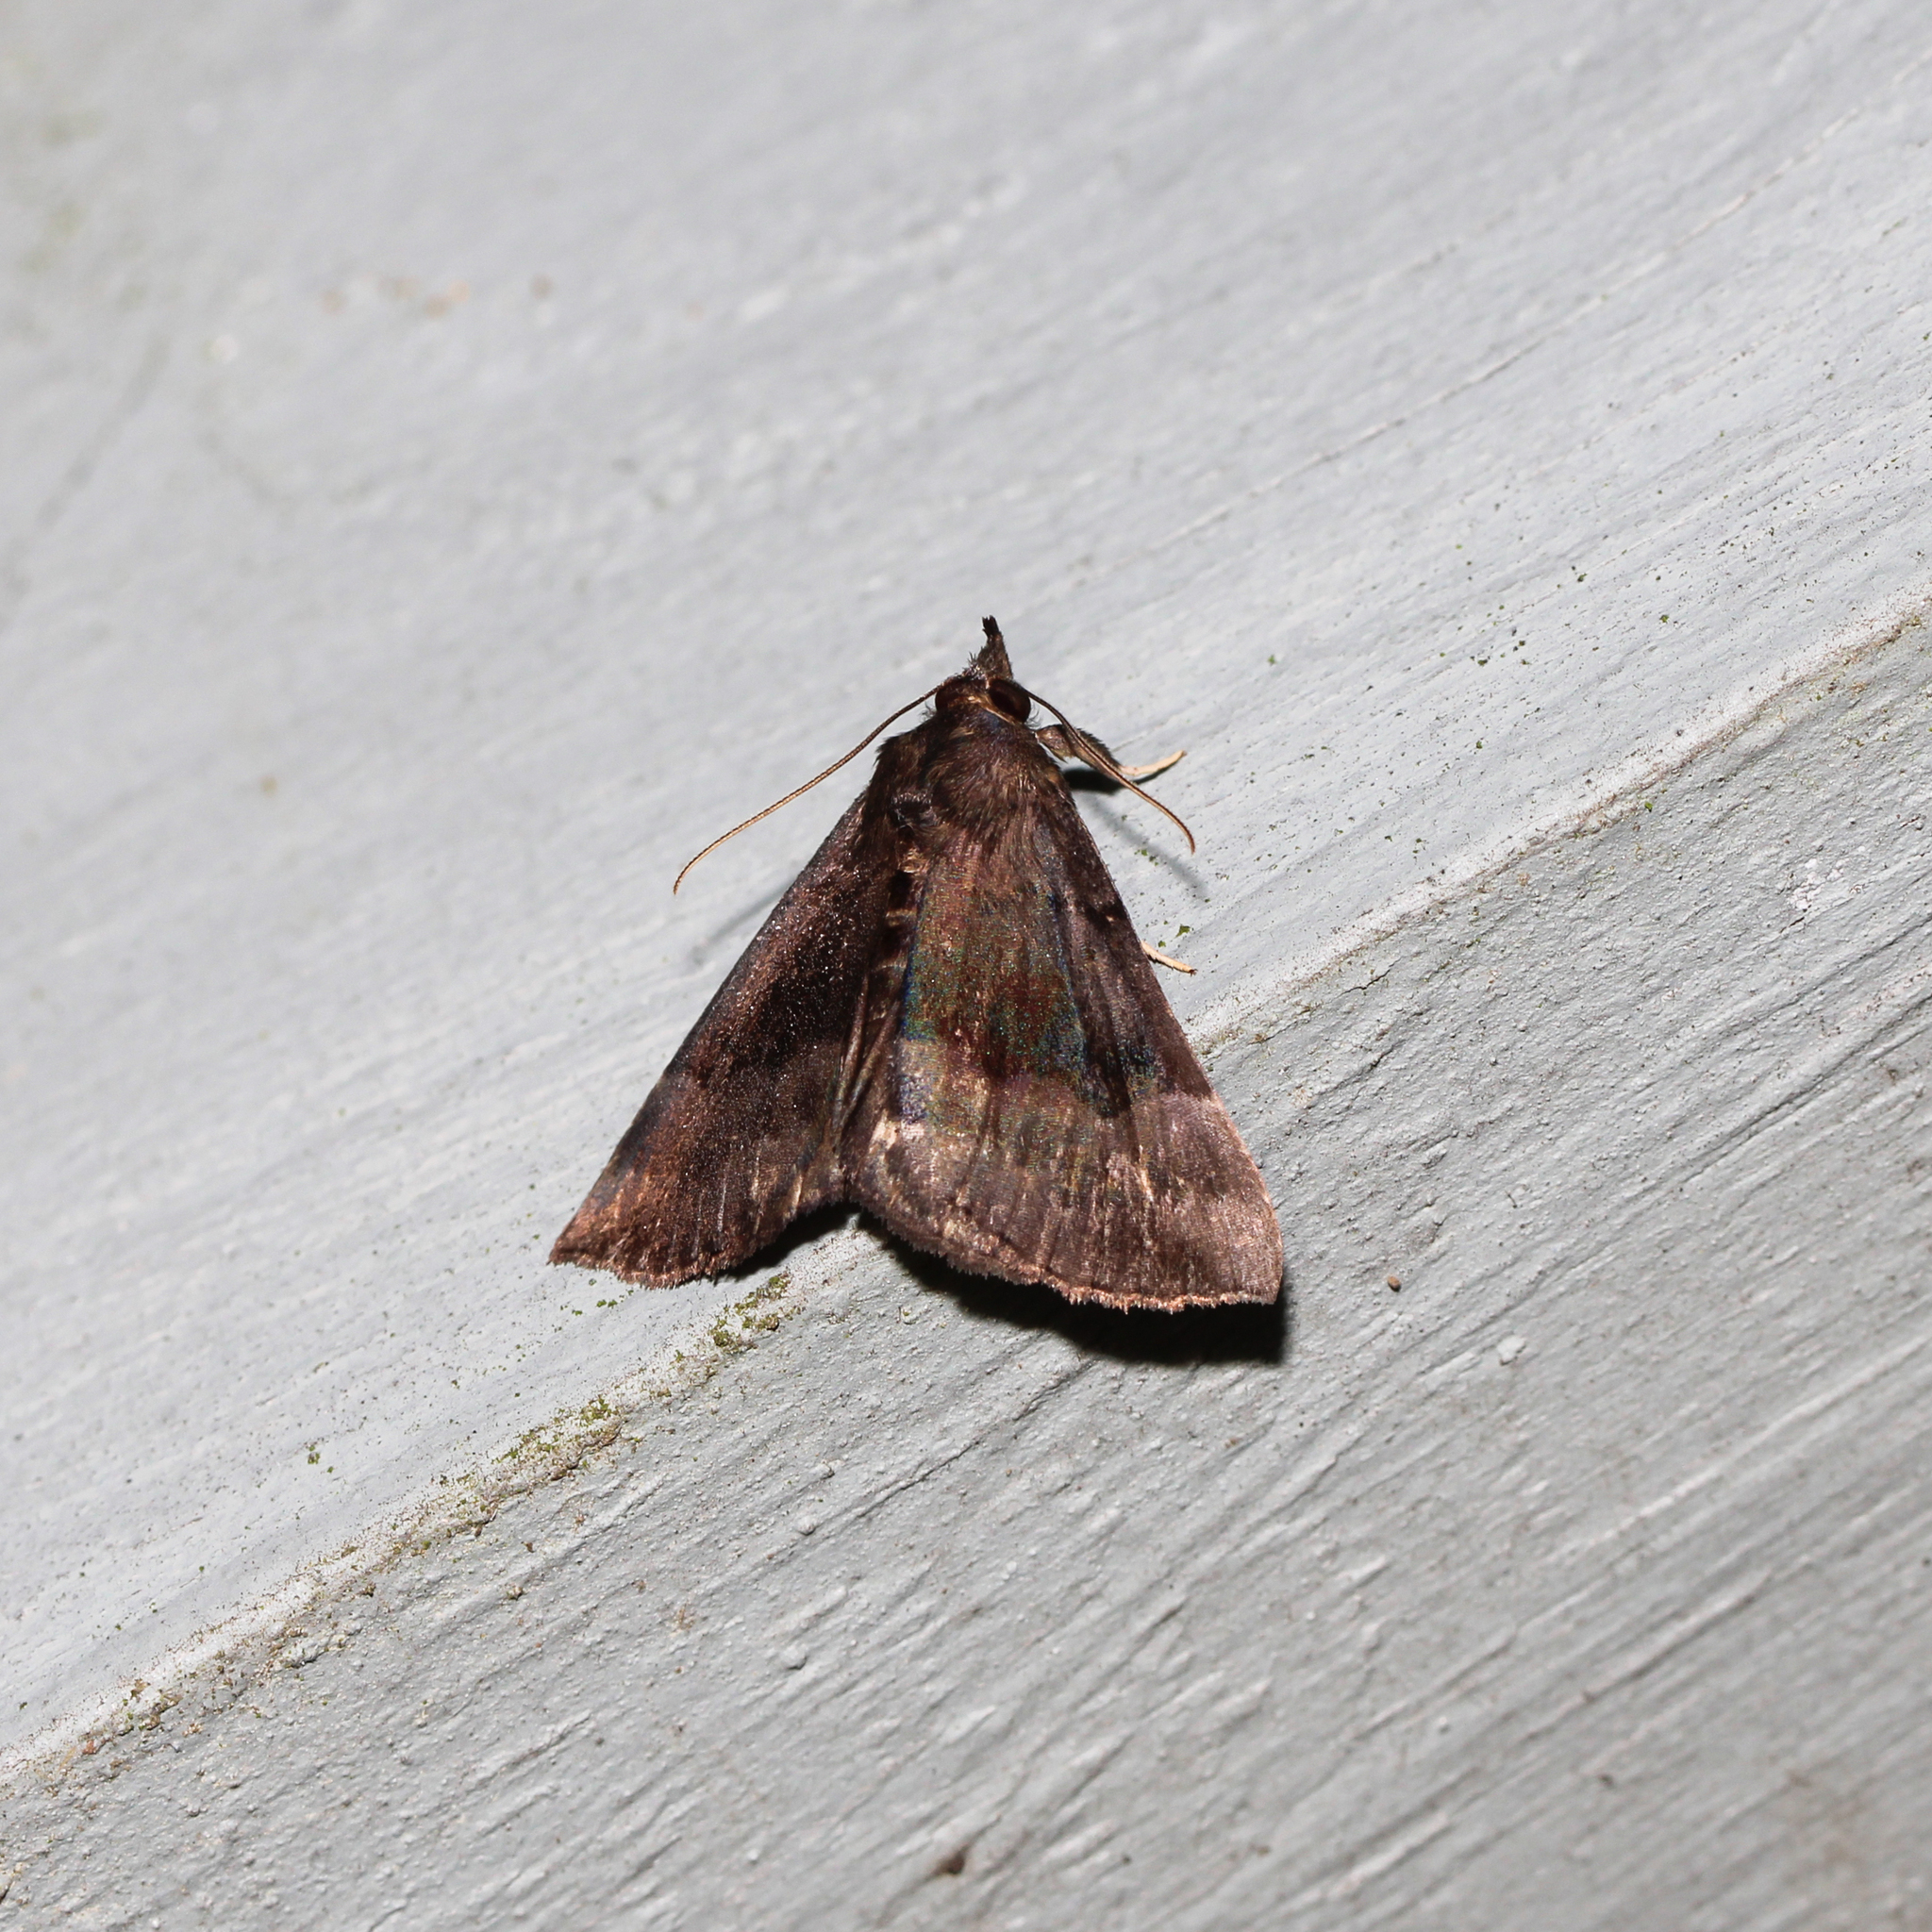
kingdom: Animalia
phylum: Arthropoda
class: Insecta
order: Lepidoptera
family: Erebidae
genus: Hypena
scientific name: Hypena madefactalis
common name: Gray-edged snout
